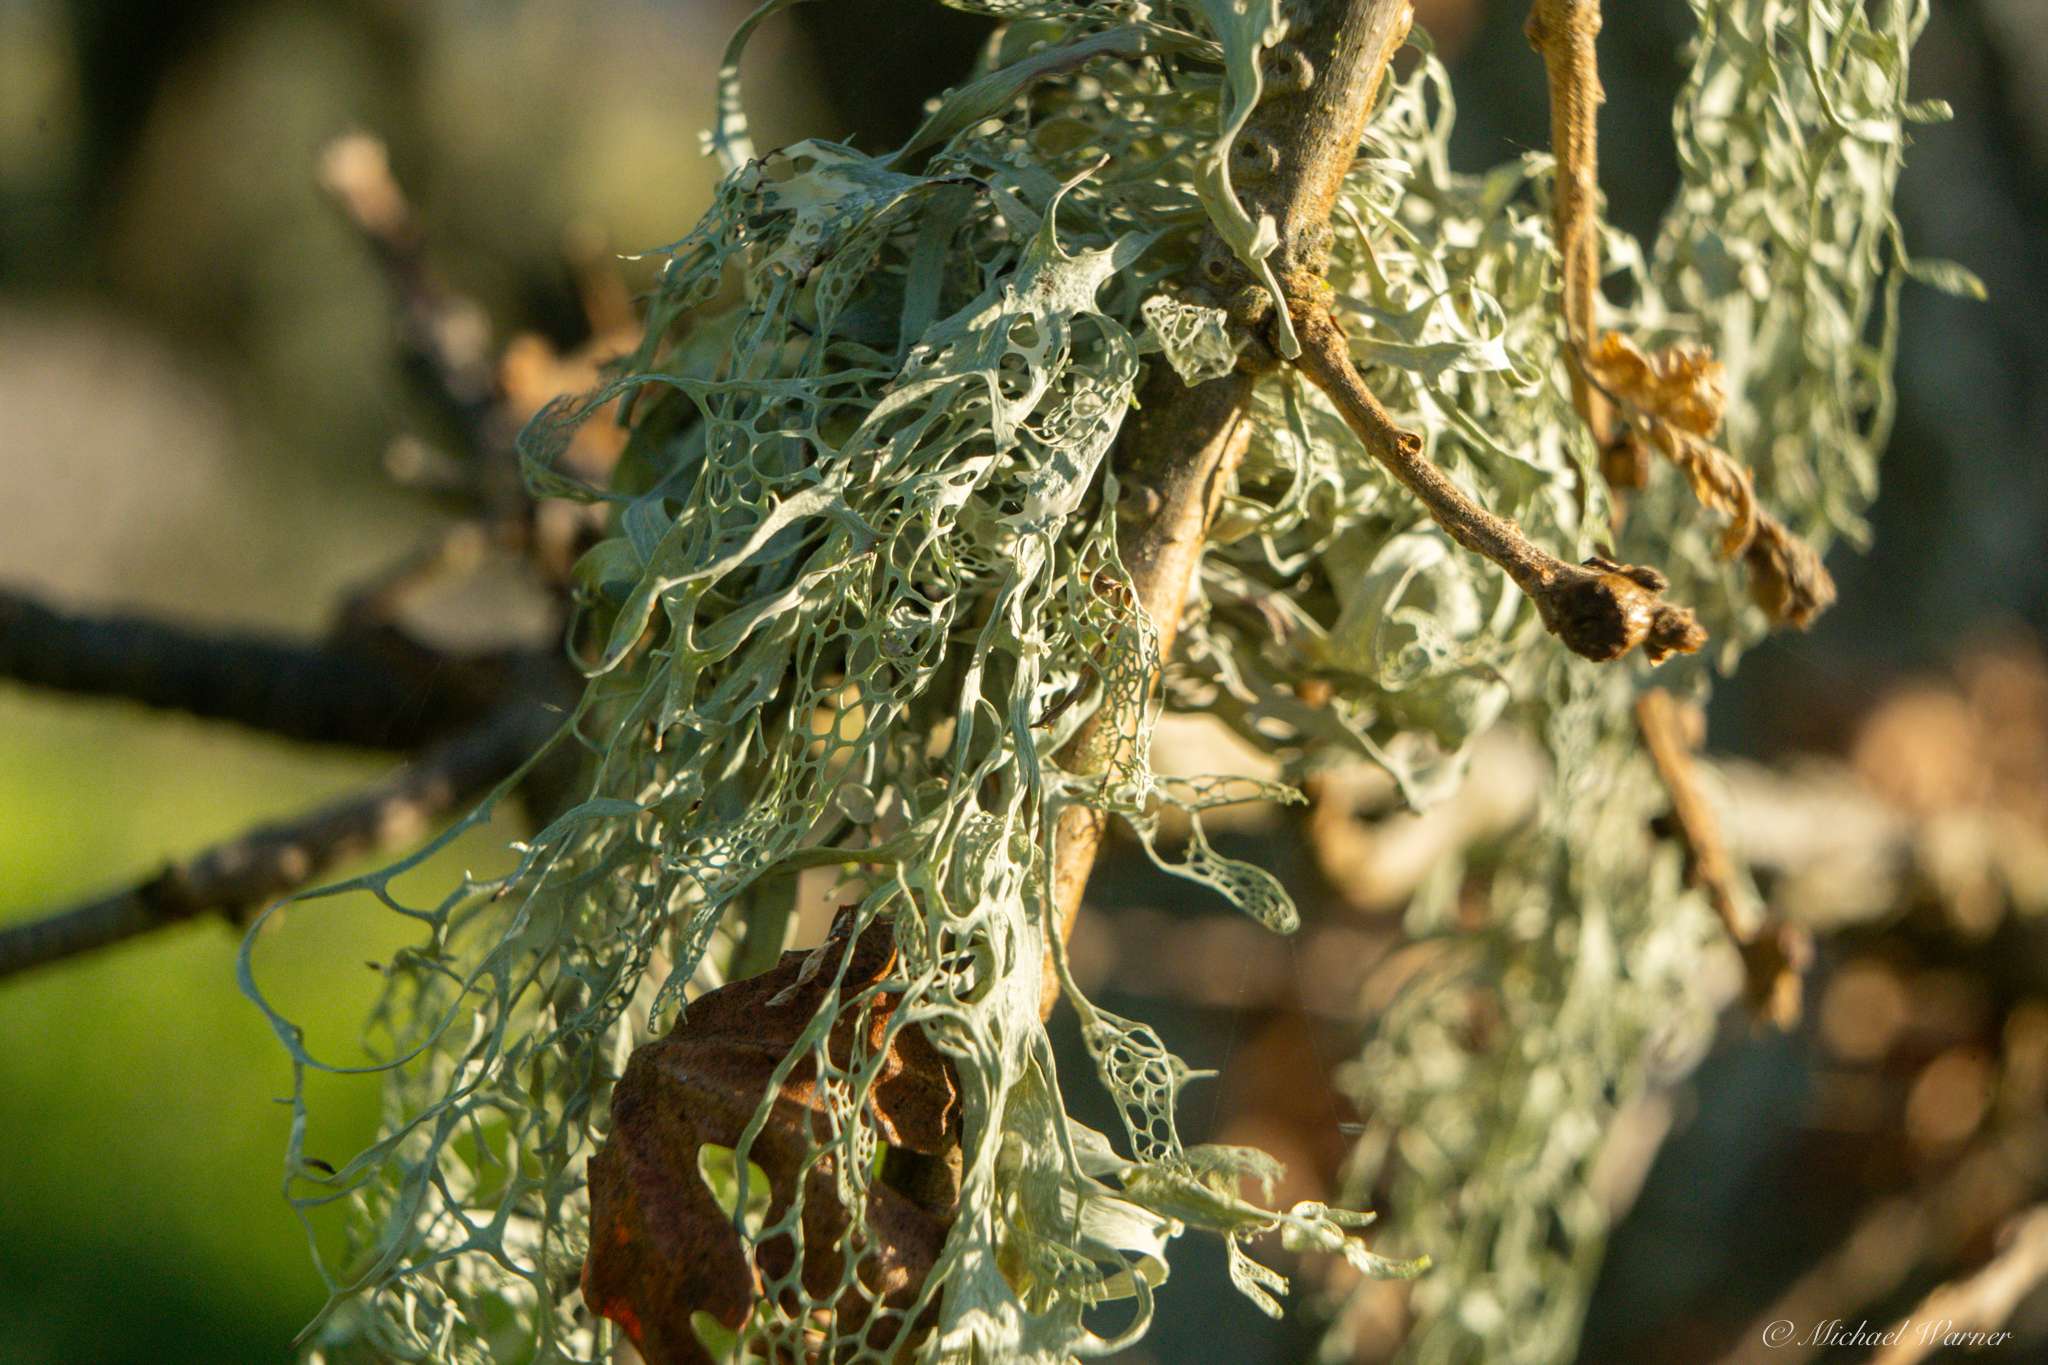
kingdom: Fungi
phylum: Ascomycota
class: Lecanoromycetes
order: Lecanorales
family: Ramalinaceae
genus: Ramalina
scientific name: Ramalina menziesii
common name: Lace lichen
